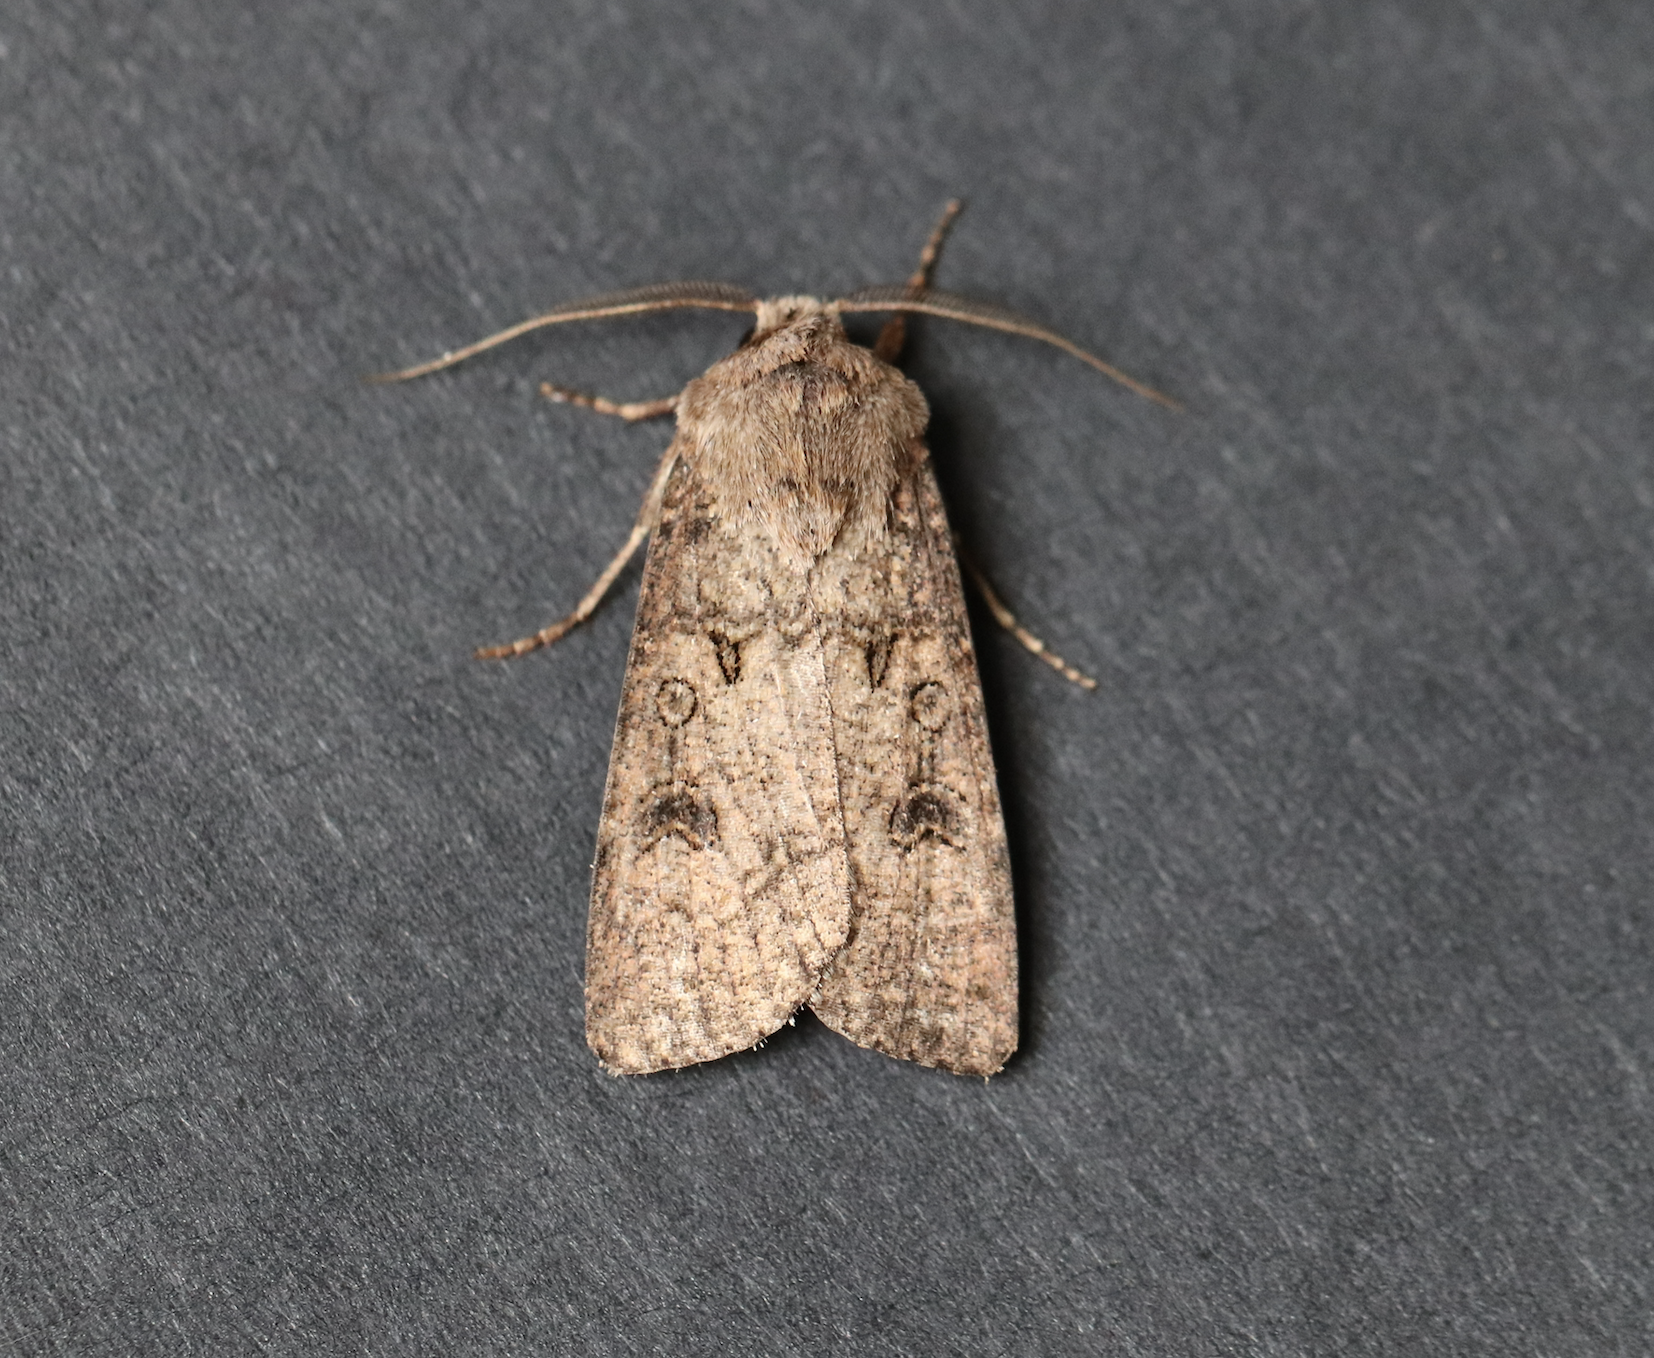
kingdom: Animalia
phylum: Arthropoda
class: Insecta
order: Lepidoptera
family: Noctuidae
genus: Agrotis
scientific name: Agrotis segetum
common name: Turnip moth
